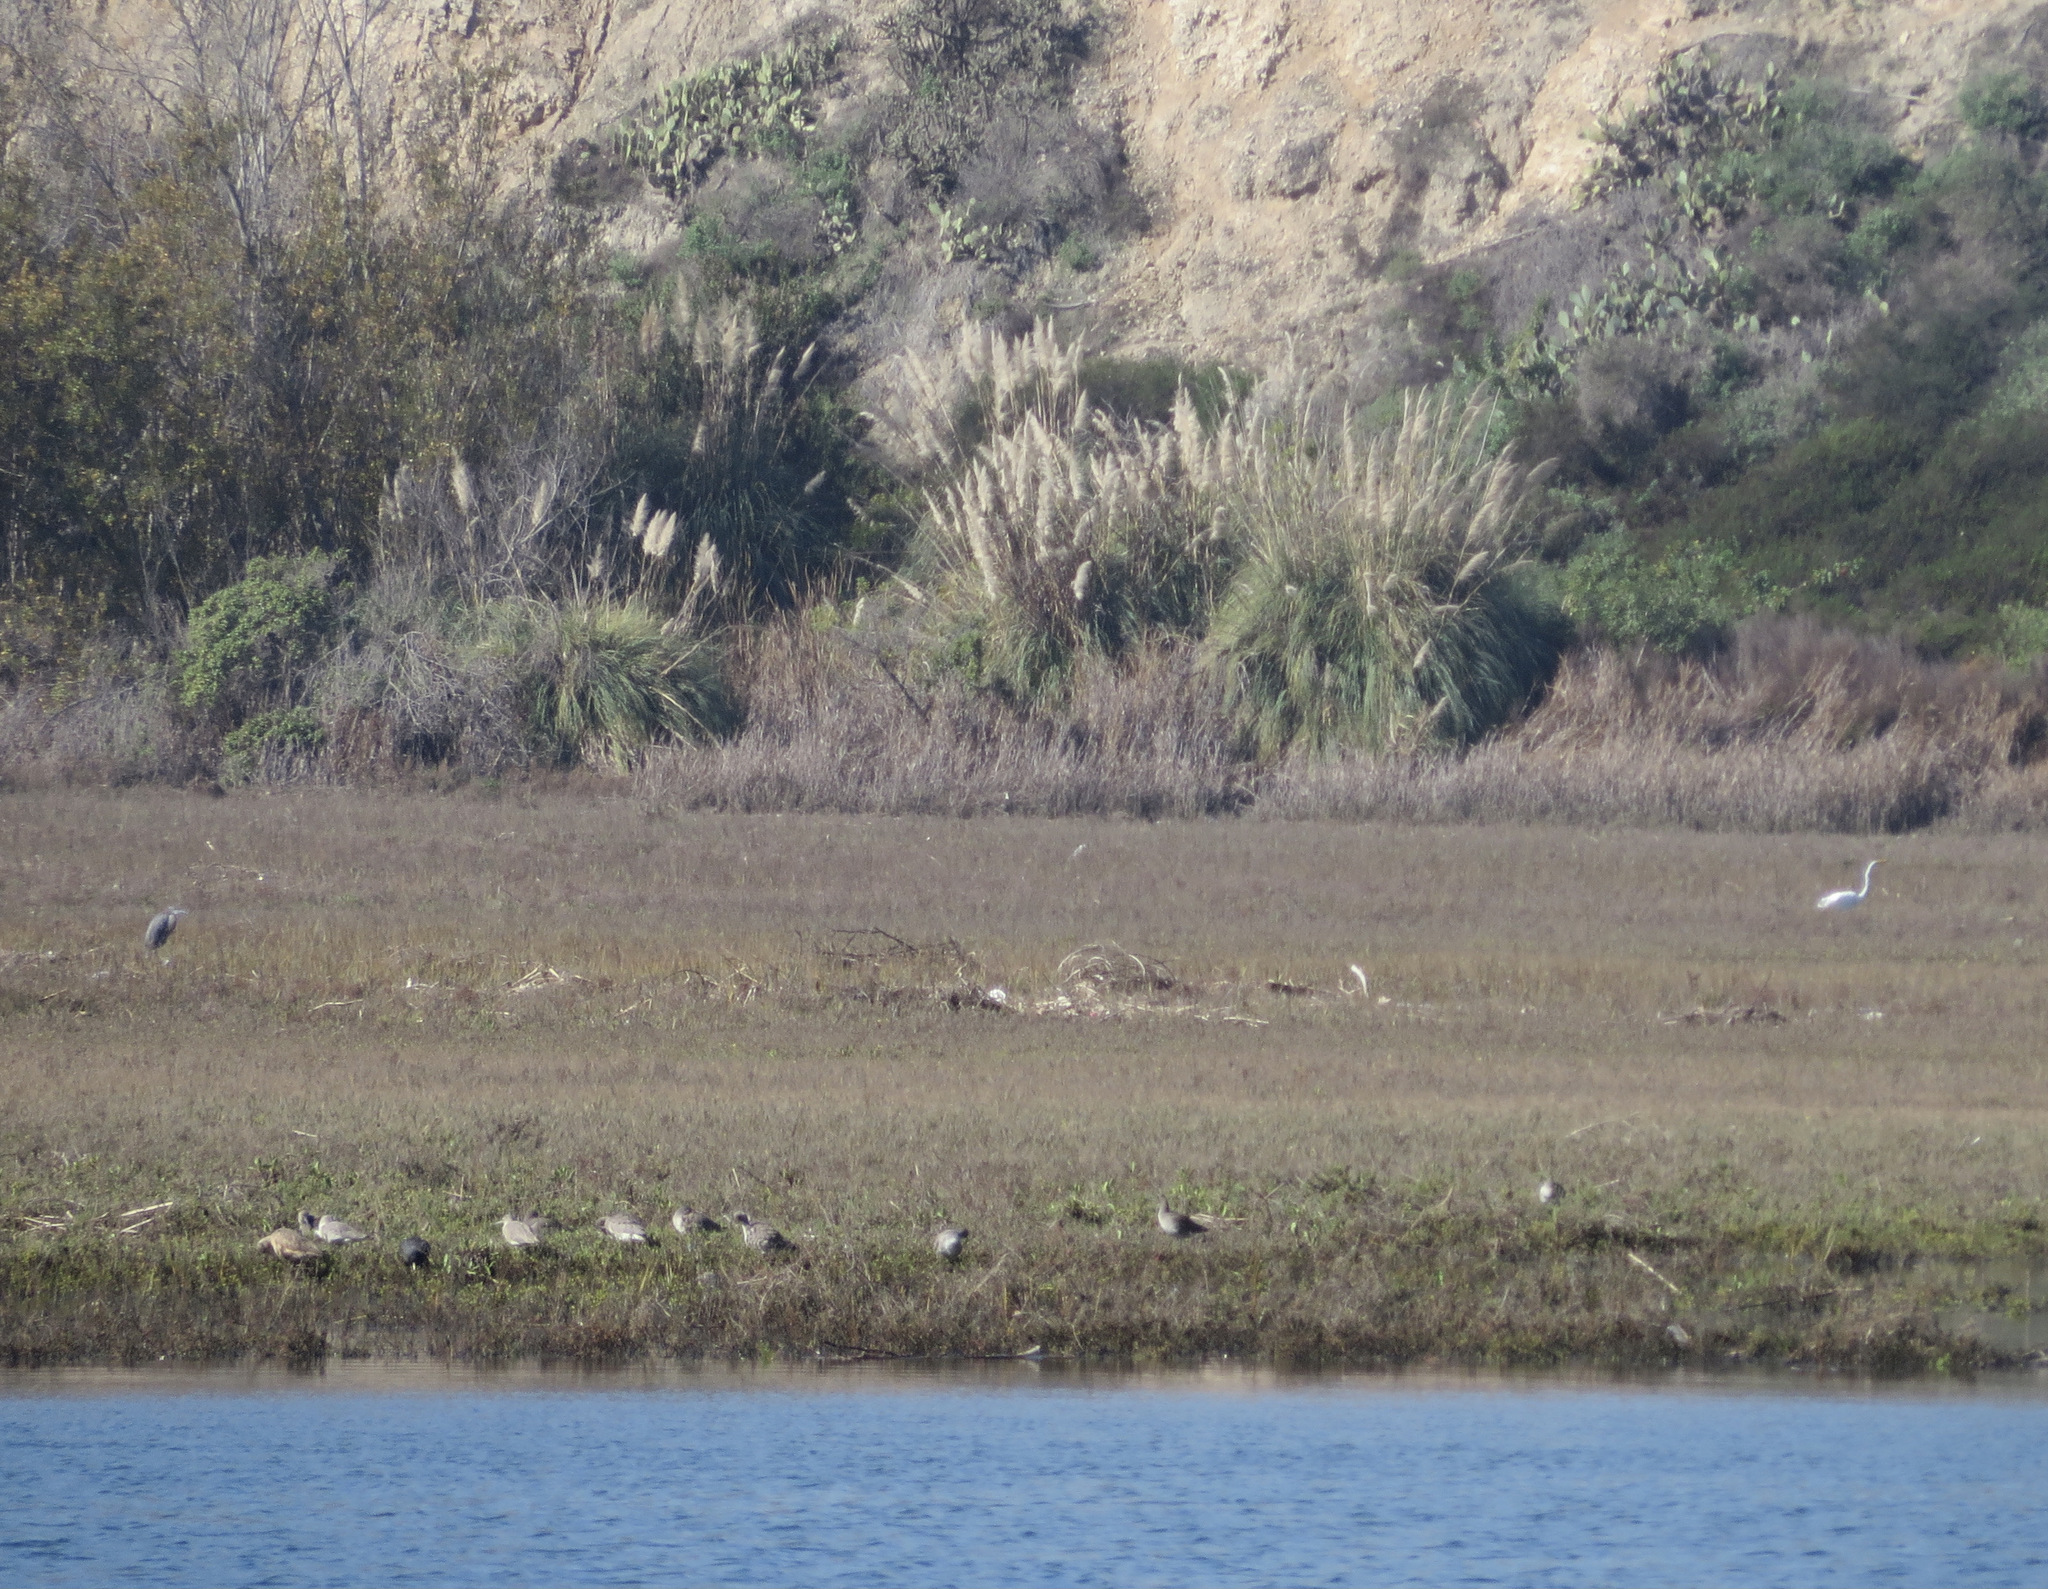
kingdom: Animalia
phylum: Chordata
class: Aves
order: Pelecaniformes
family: Ardeidae
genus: Egretta
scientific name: Egretta rufescens
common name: Reddish egret
